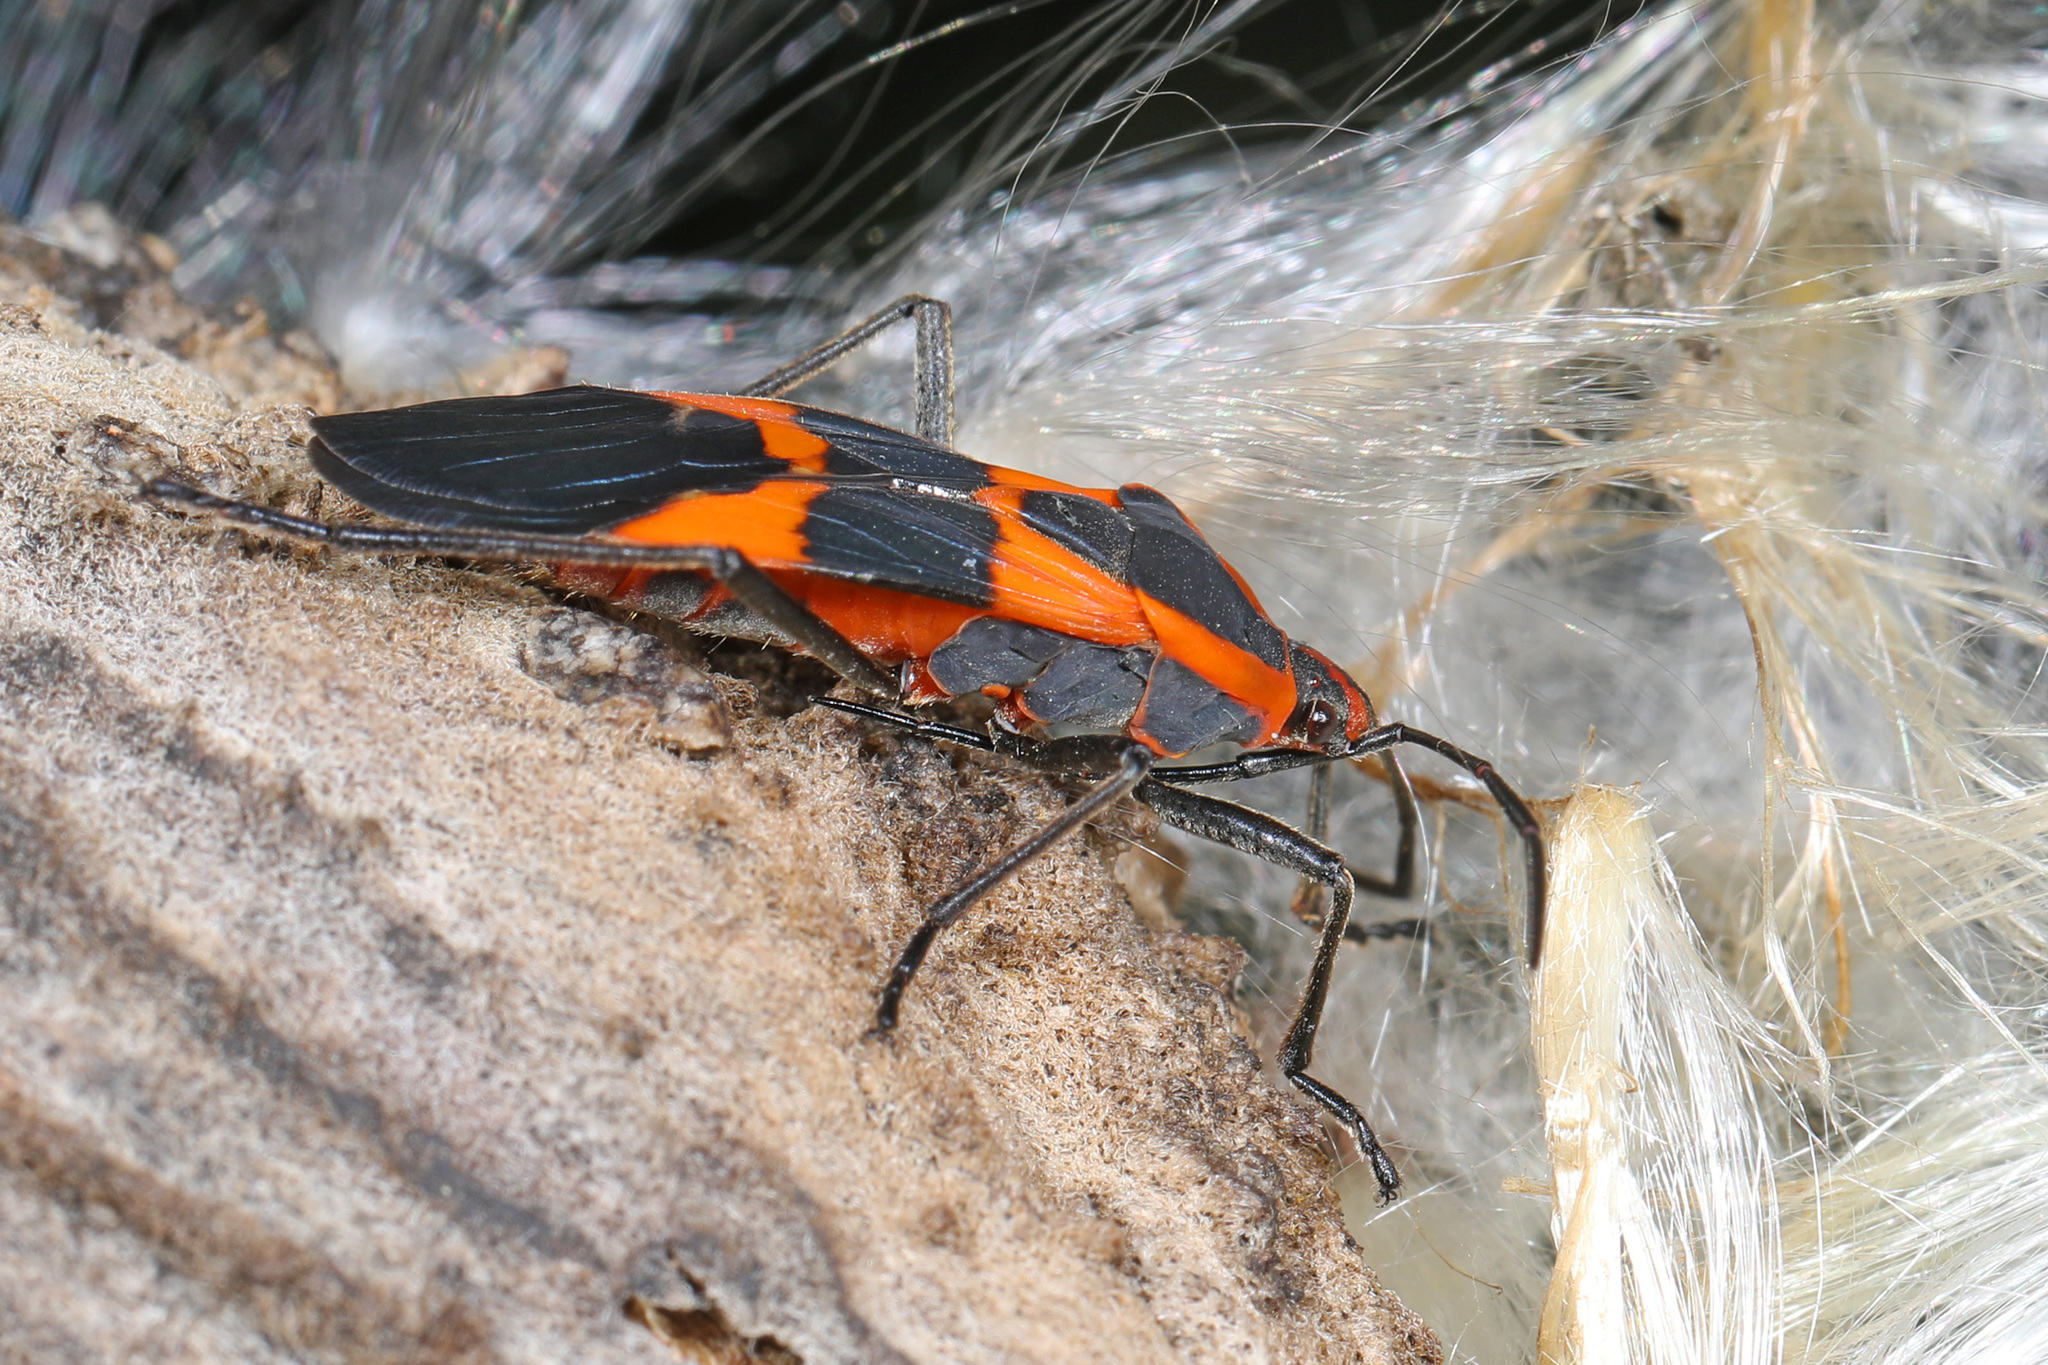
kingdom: Animalia
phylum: Arthropoda
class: Insecta
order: Hemiptera
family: Lygaeidae
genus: Oncopeltus
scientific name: Oncopeltus fasciatus
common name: Large milkweed bug
